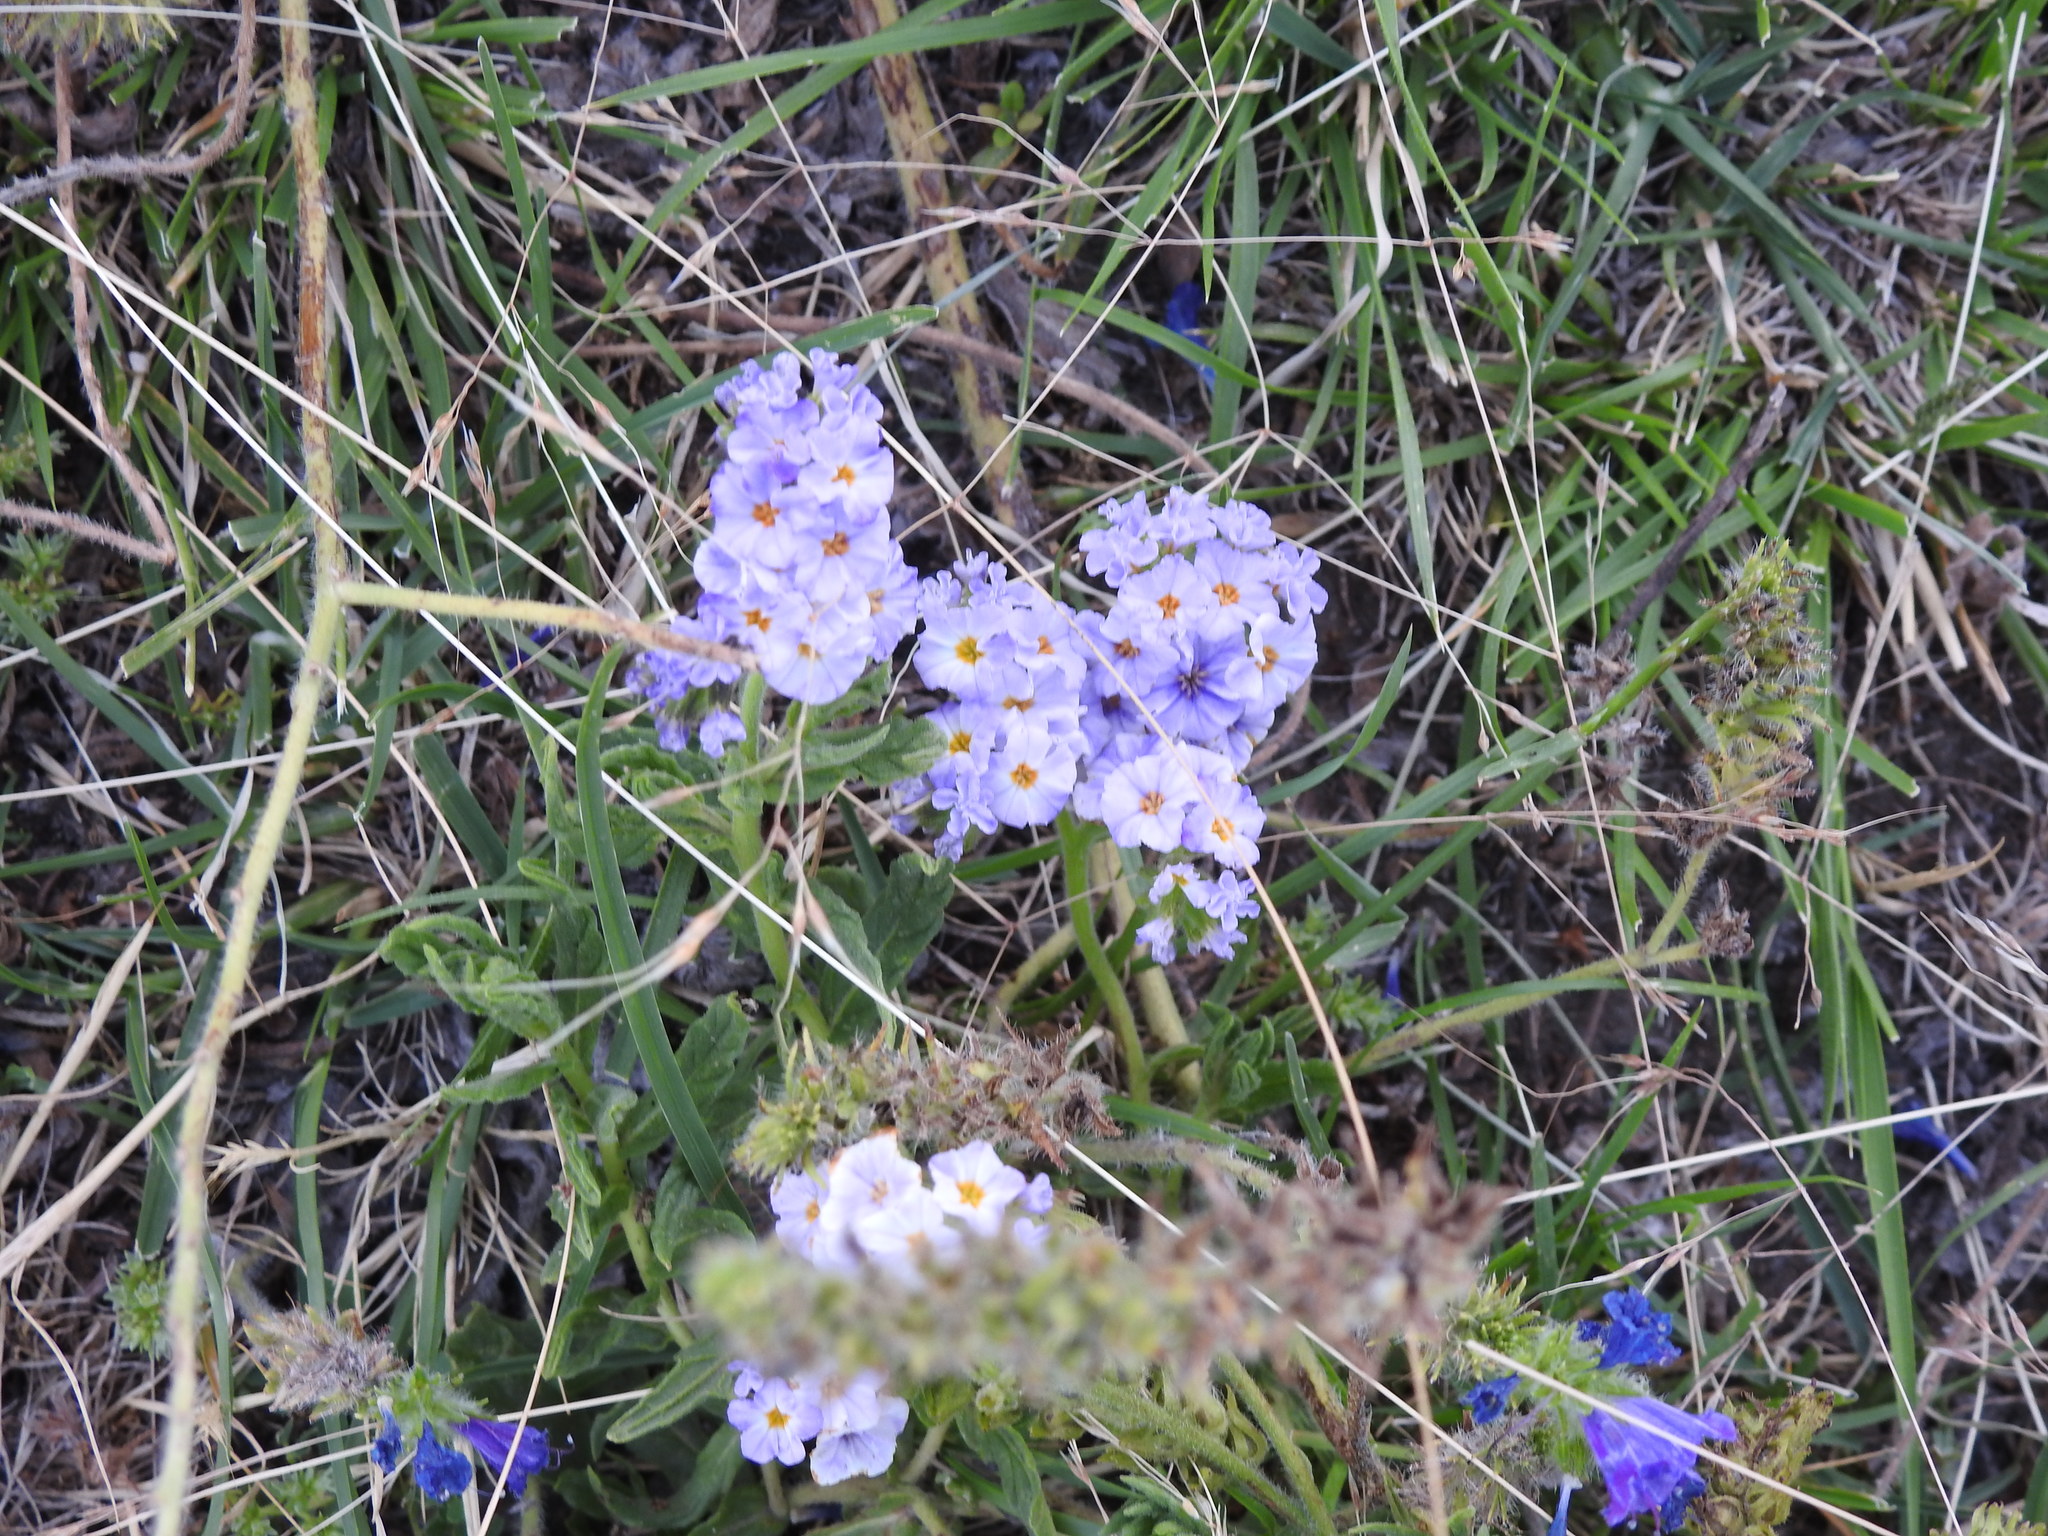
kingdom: Plantae
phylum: Tracheophyta
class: Magnoliopsida
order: Boraginales
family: Heliotropiaceae
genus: Heliotropium
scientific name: Heliotropium amplexicaule
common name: Clasping heliotrope
